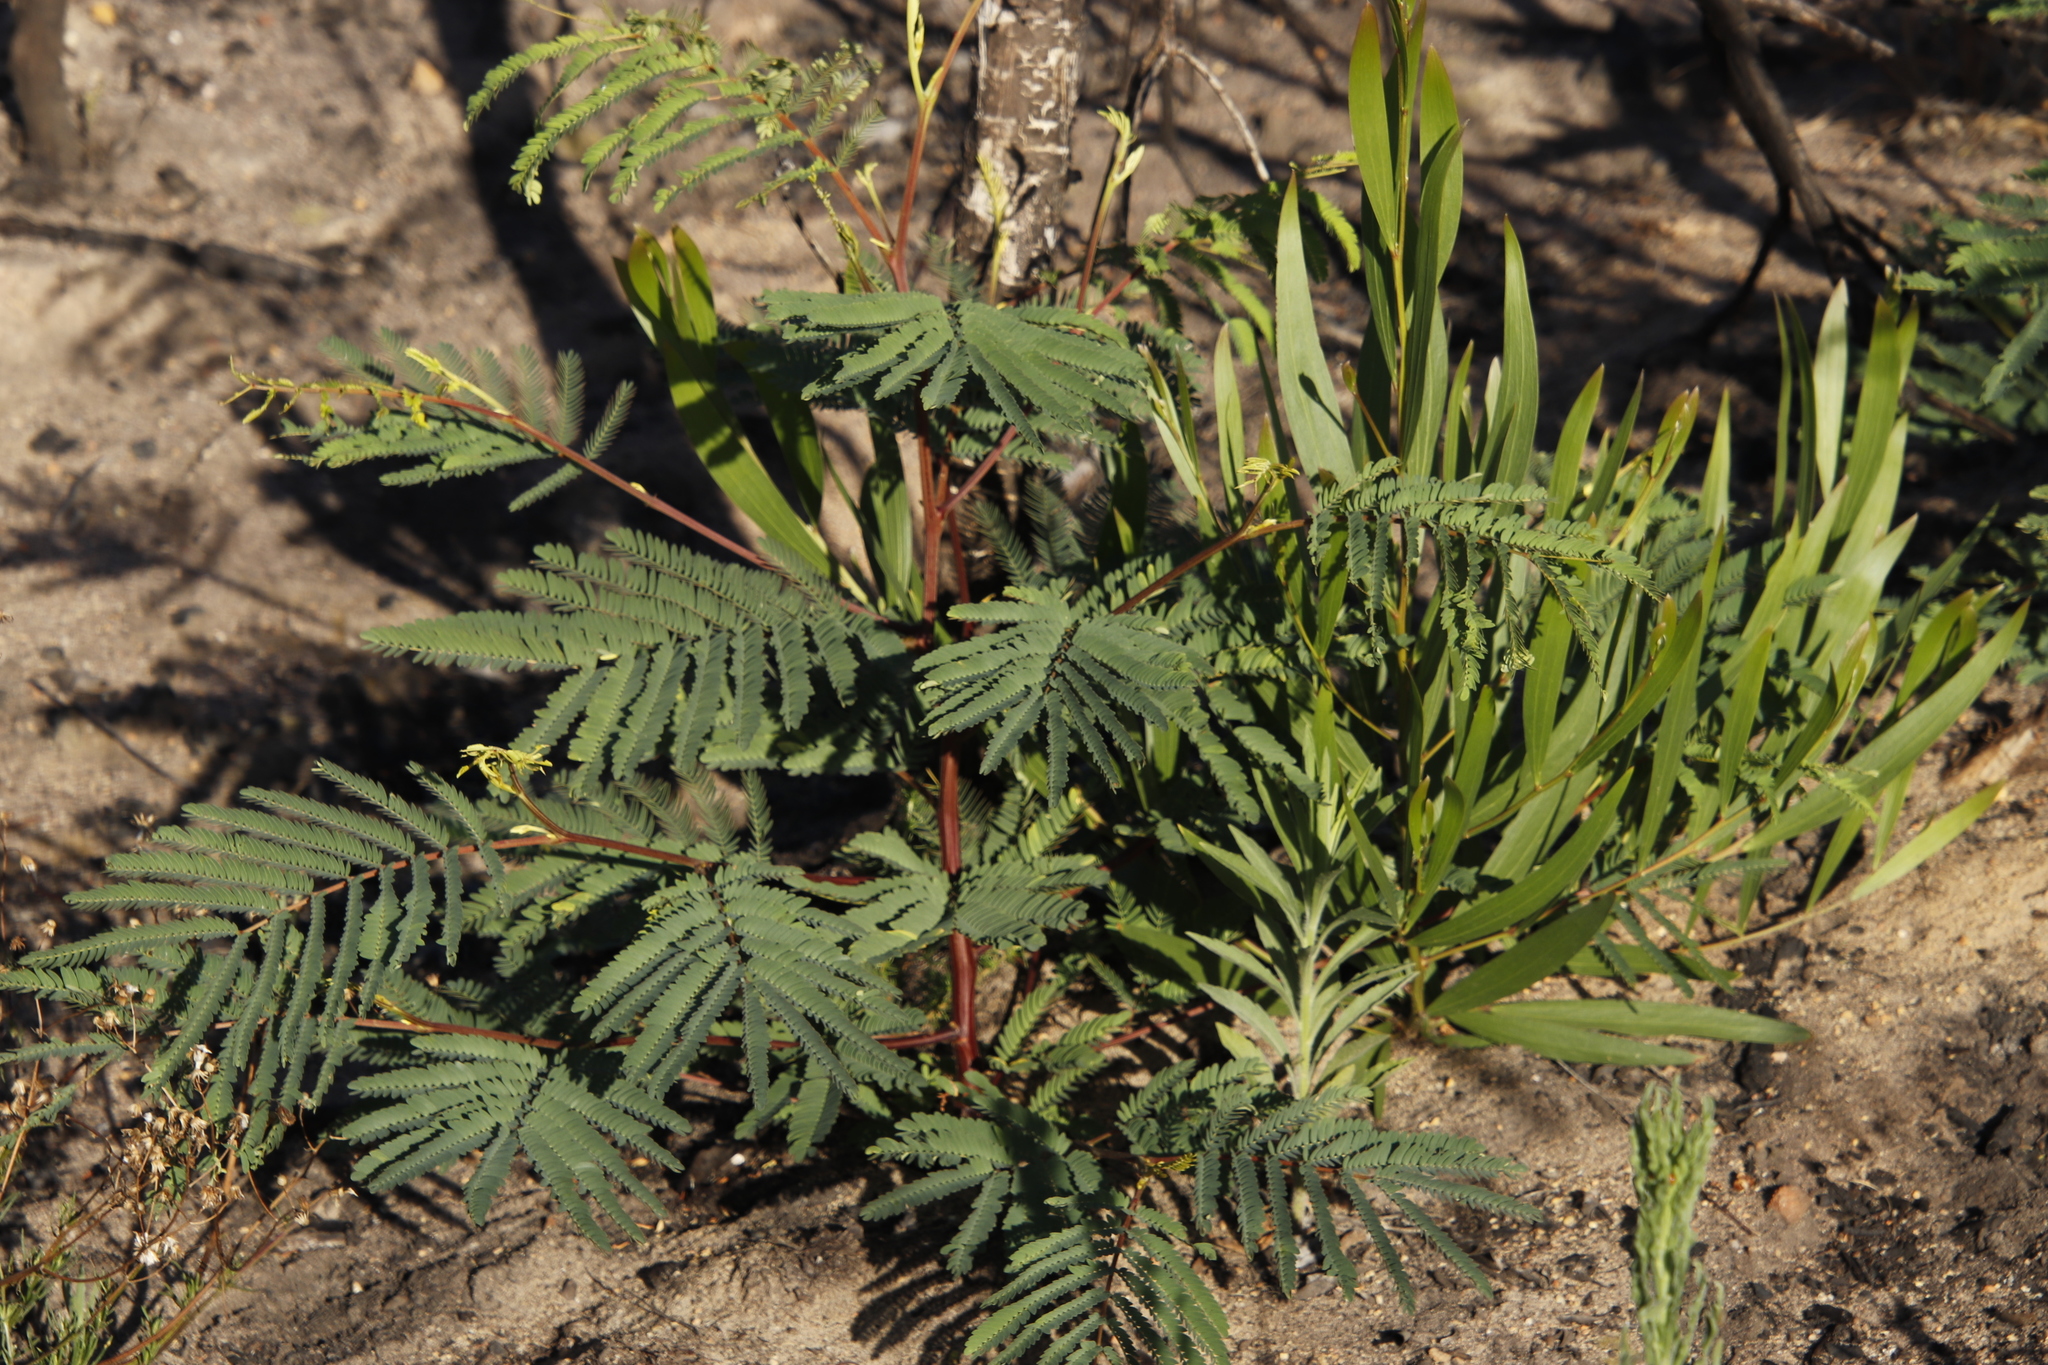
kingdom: Plantae
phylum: Tracheophyta
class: Magnoliopsida
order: Fabales
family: Fabaceae
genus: Paraserianthes
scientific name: Paraserianthes lophantha
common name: Plume albizia
